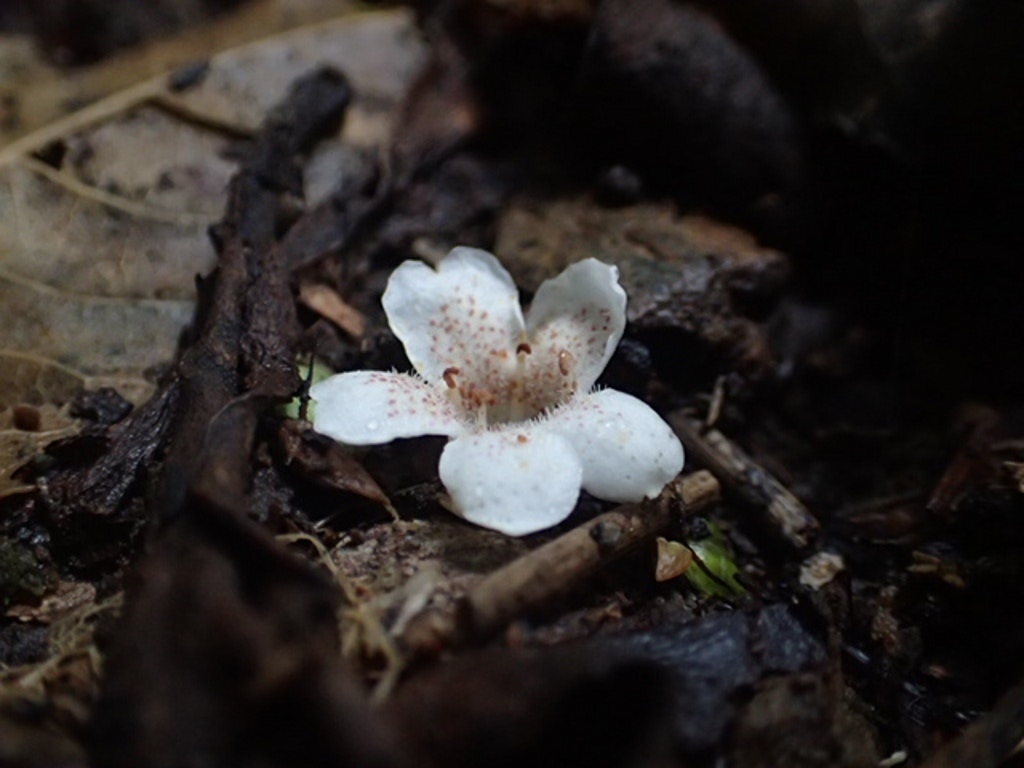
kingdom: Plantae
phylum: Tracheophyta
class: Magnoliopsida
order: Lamiales
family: Scrophulariaceae
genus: Myoporum
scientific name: Myoporum laetum
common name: Ngaio tree
